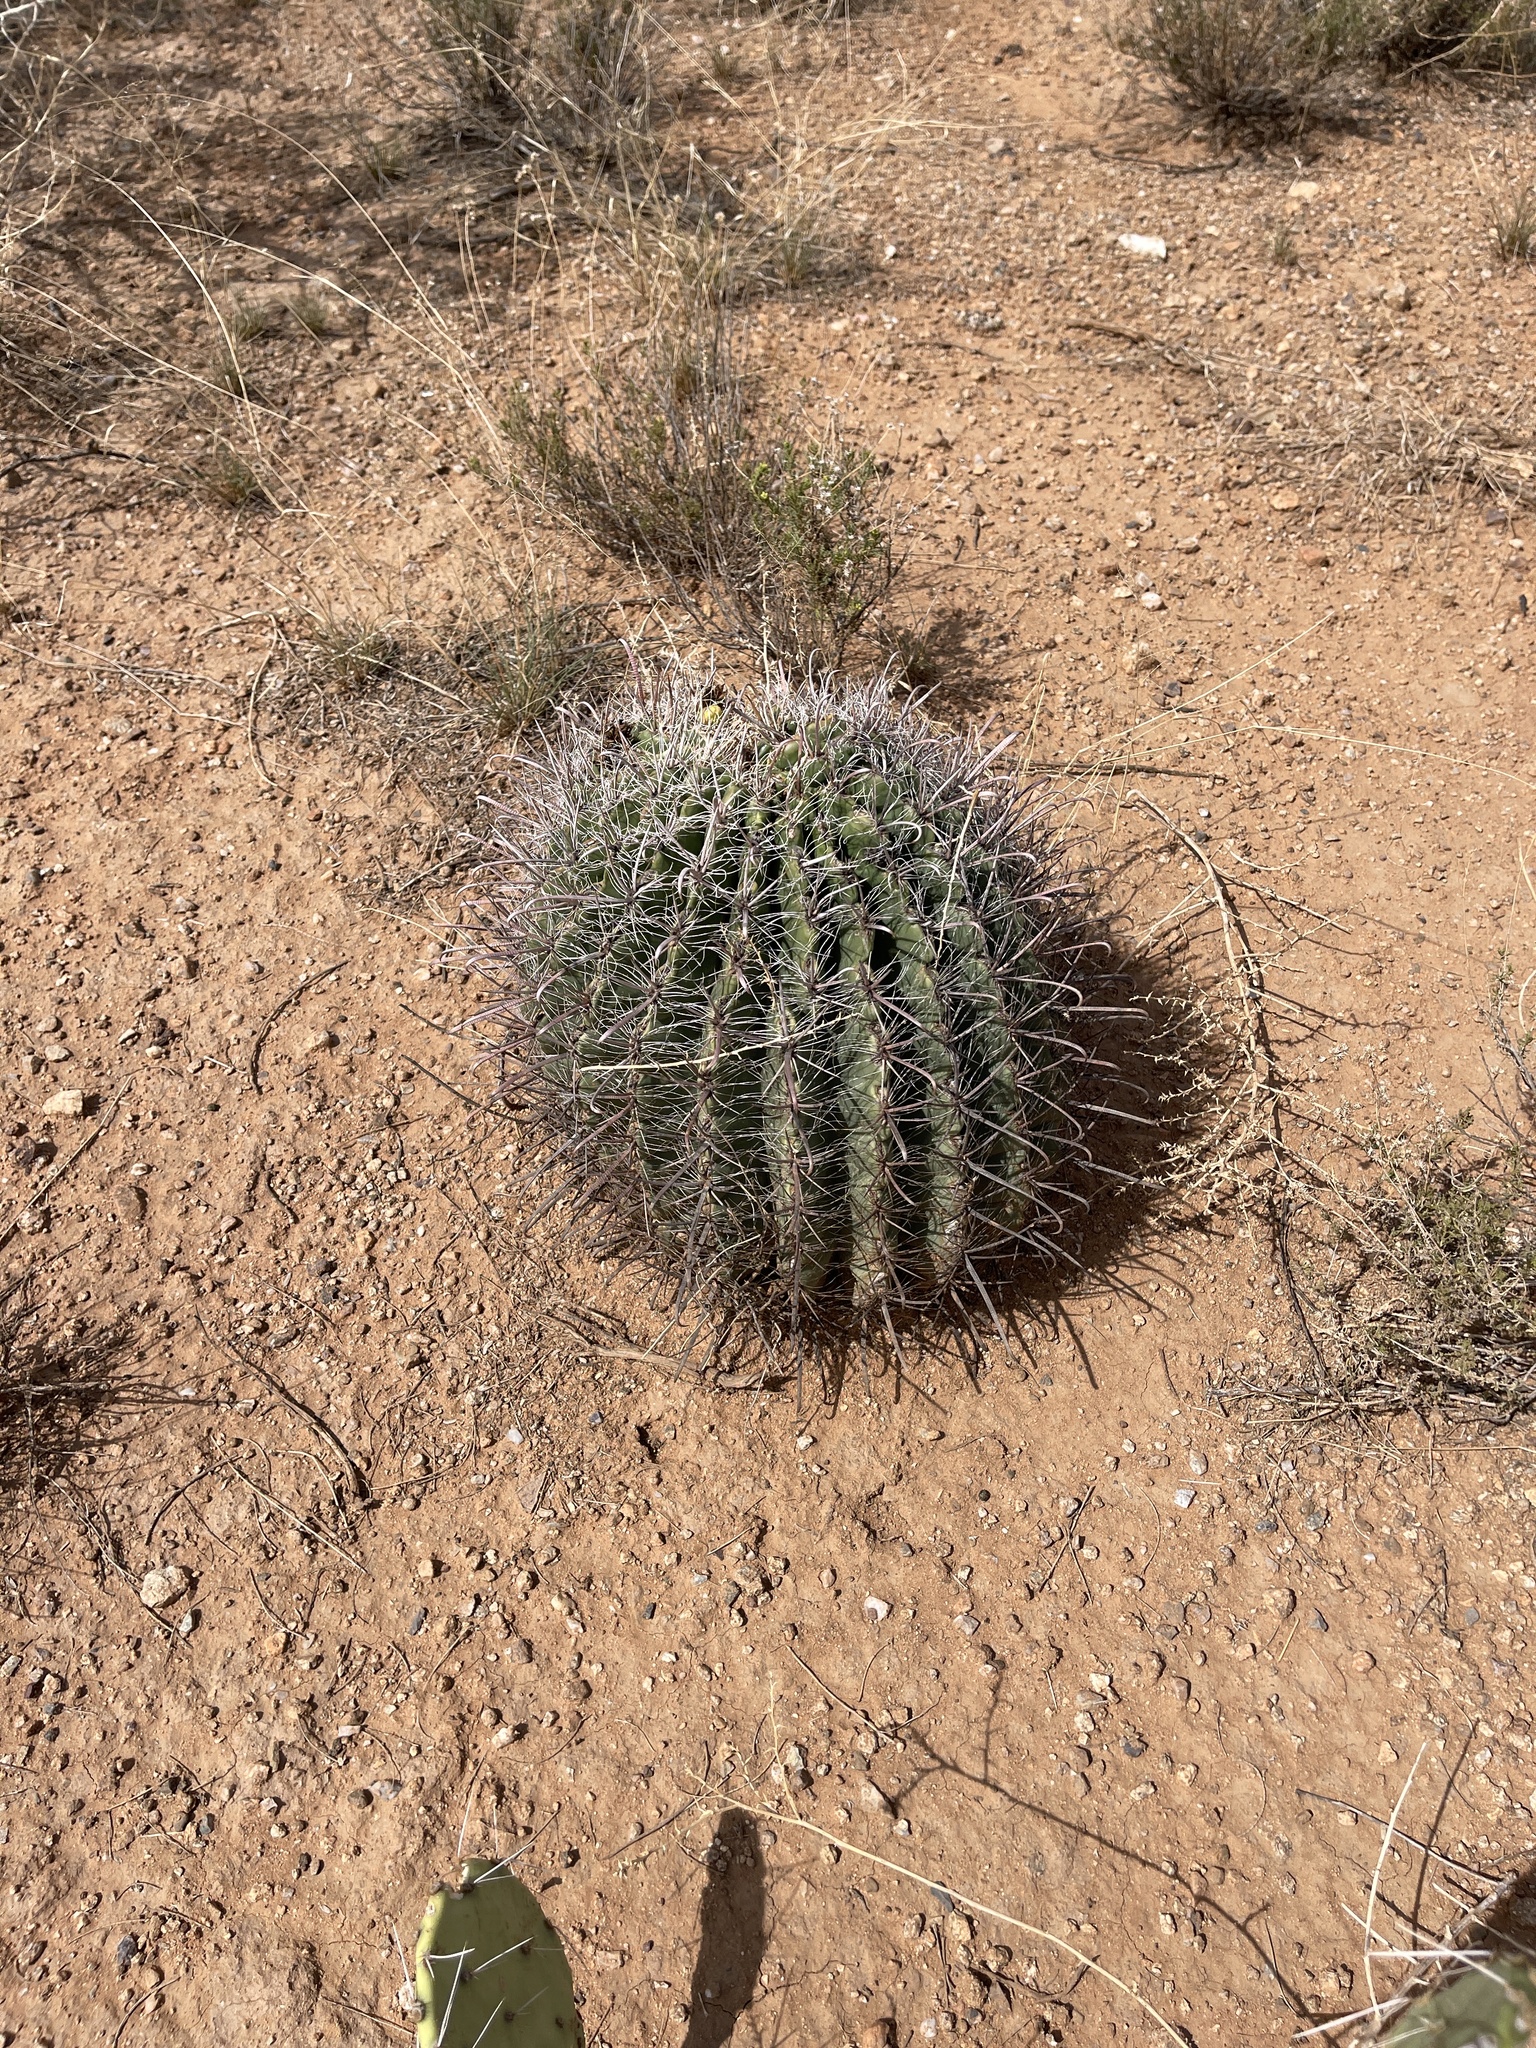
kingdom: Plantae
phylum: Tracheophyta
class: Magnoliopsida
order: Caryophyllales
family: Cactaceae
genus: Ferocactus
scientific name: Ferocactus wislizeni
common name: Candy barrel cactus
